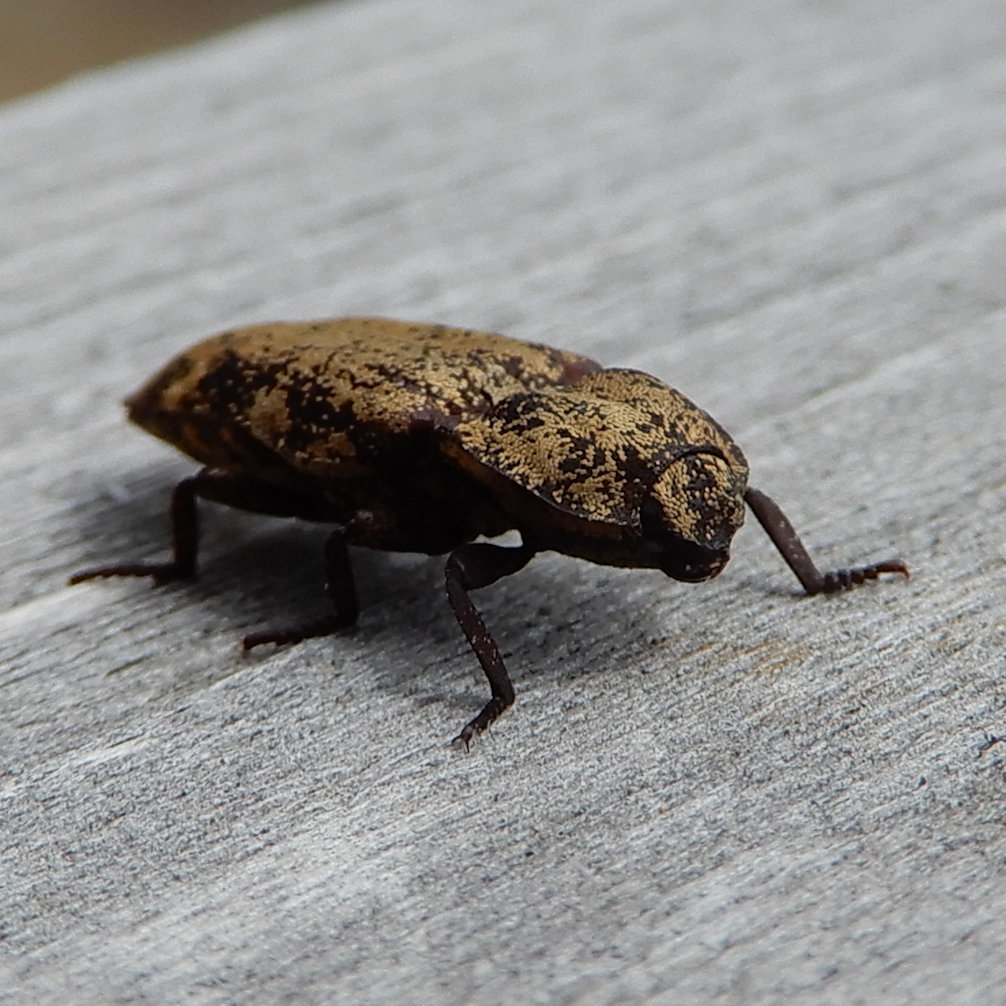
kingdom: Animalia
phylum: Arthropoda
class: Insecta
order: Coleoptera
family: Elateridae
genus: Danosoma
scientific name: Danosoma brevicorne
